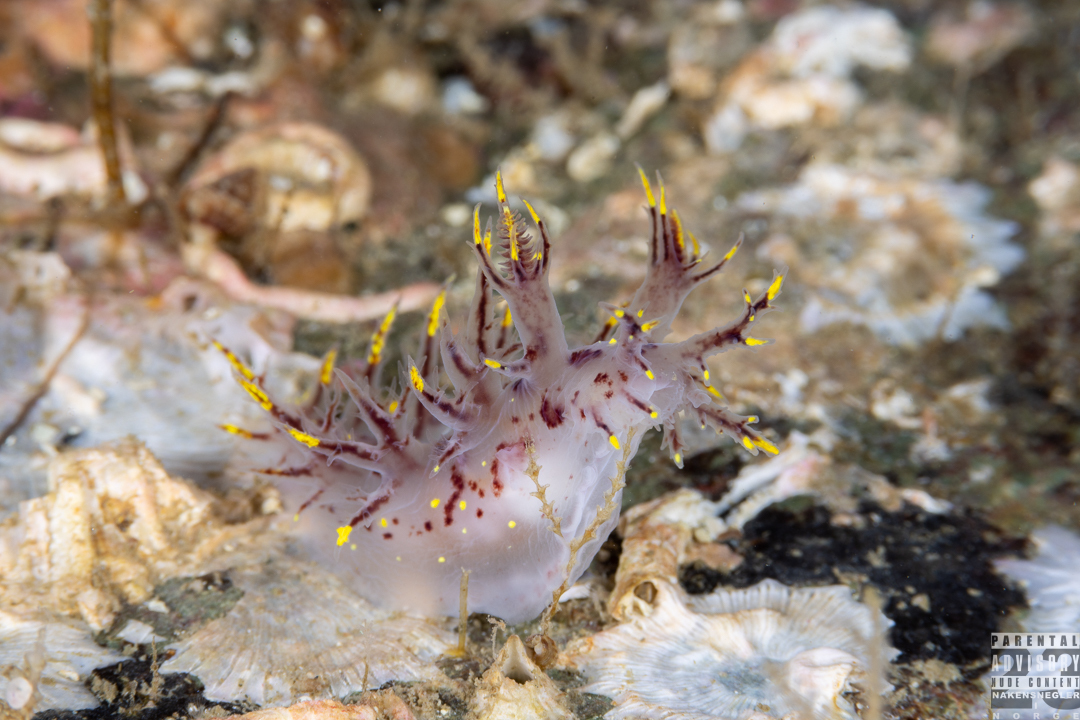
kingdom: Animalia
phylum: Mollusca
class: Gastropoda
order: Nudibranchia
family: Dendronotidae
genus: Dendronotus
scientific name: Dendronotus arcticus
